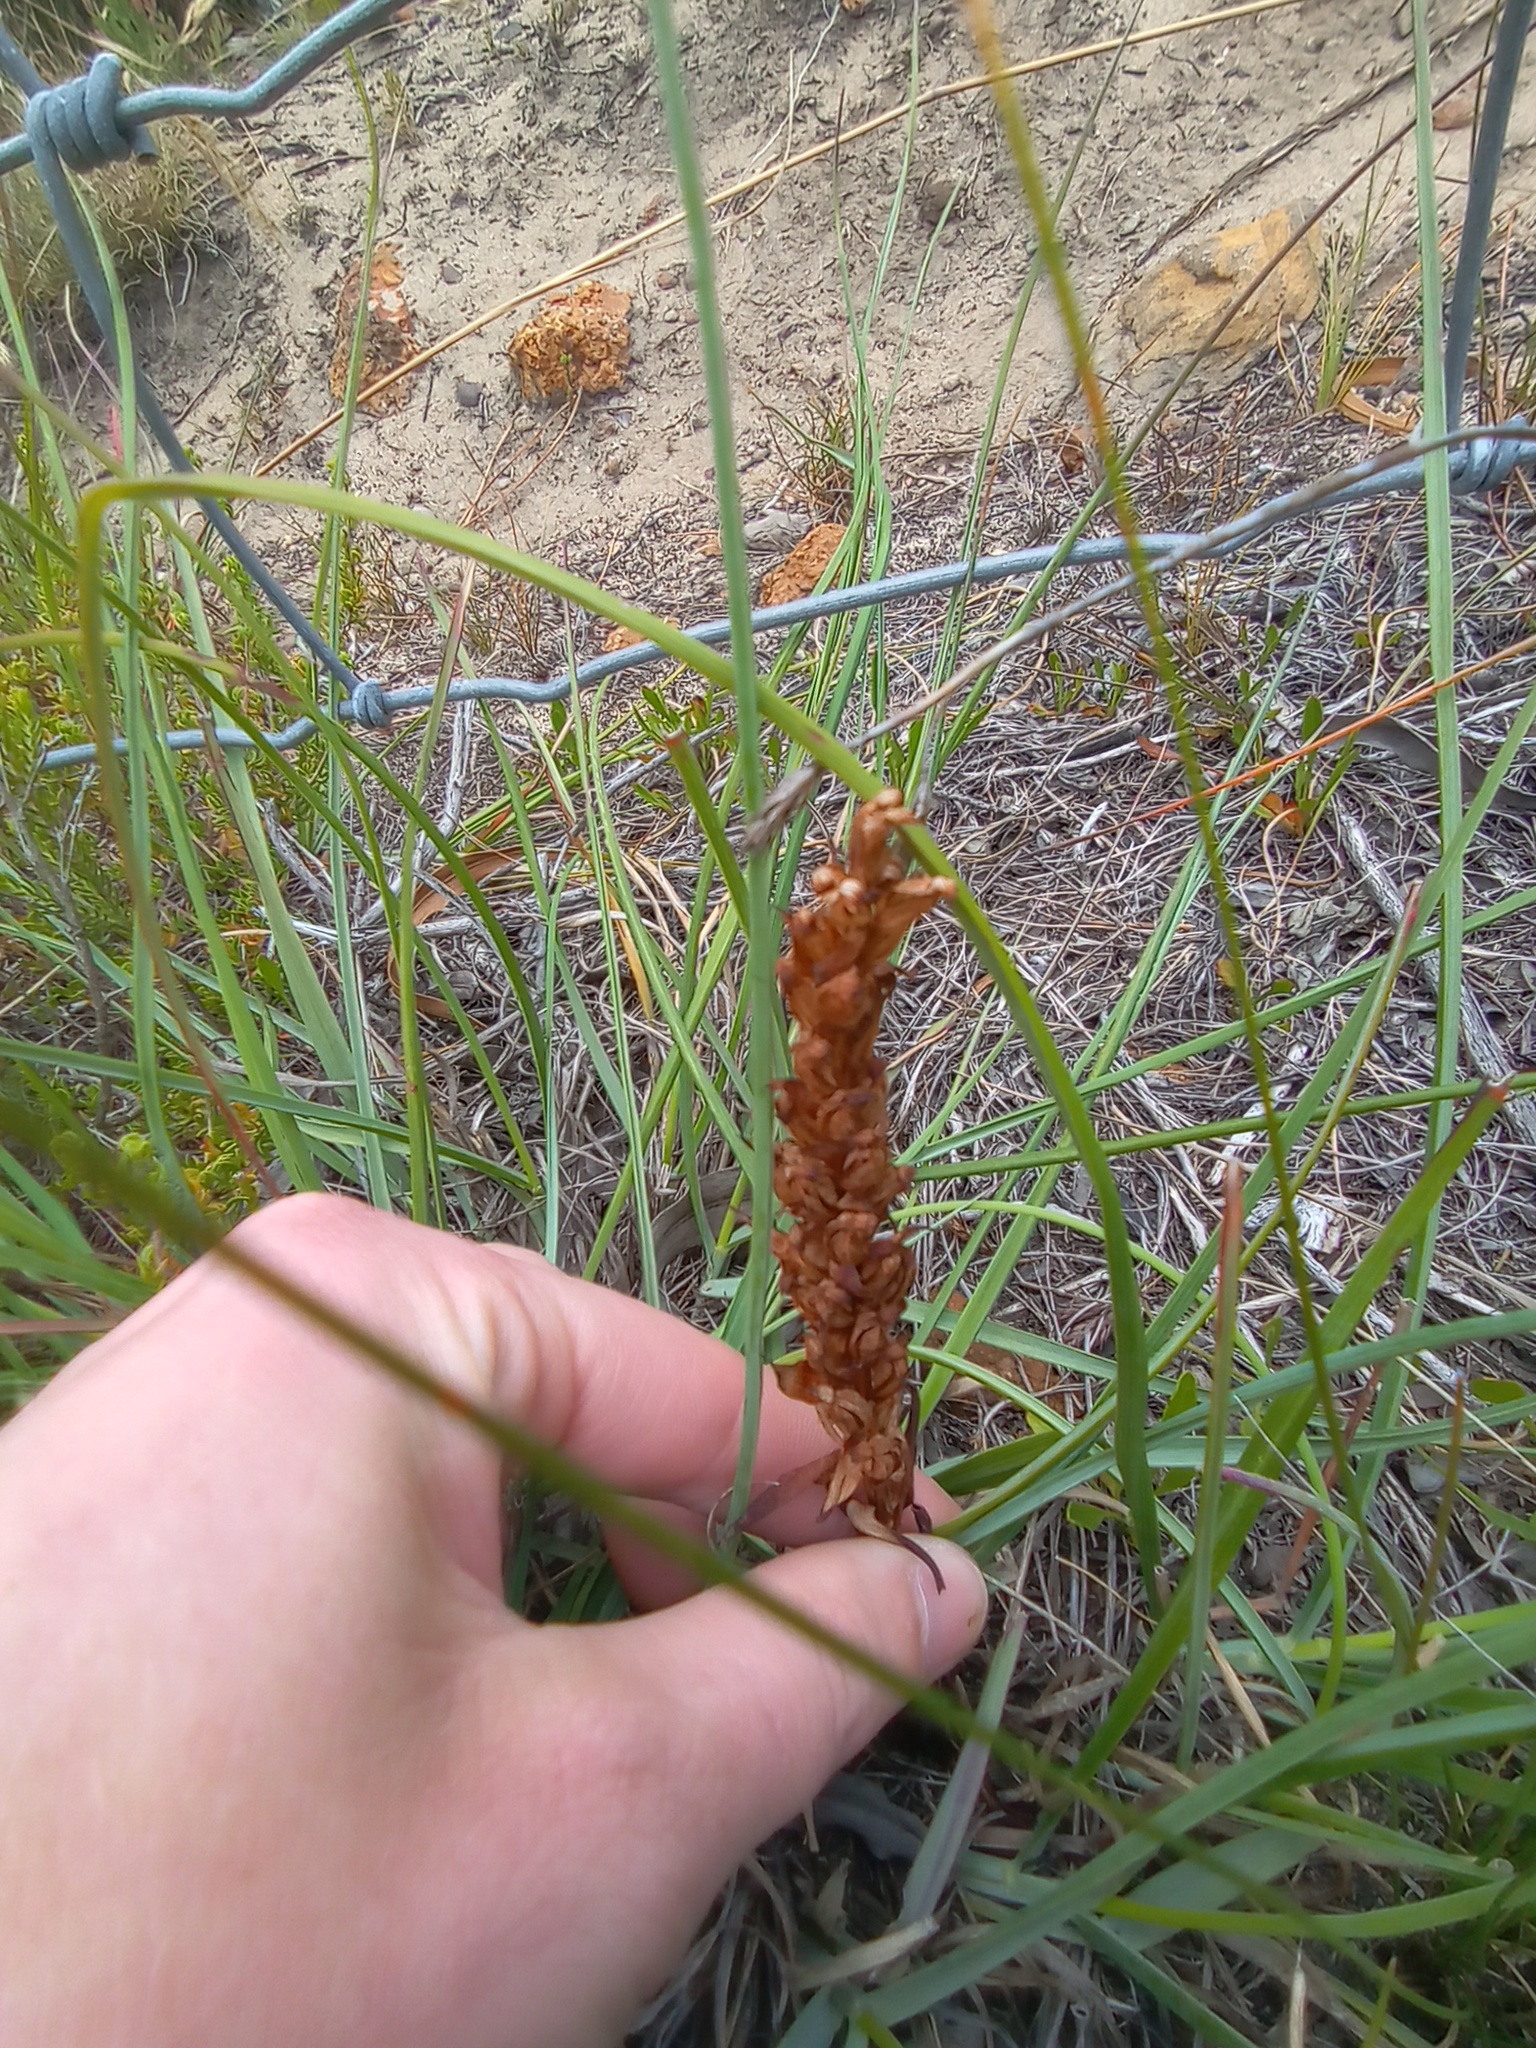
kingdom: Plantae
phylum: Tracheophyta
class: Liliopsida
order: Asparagales
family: Orchidaceae
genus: Disa
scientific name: Disa bracteata
